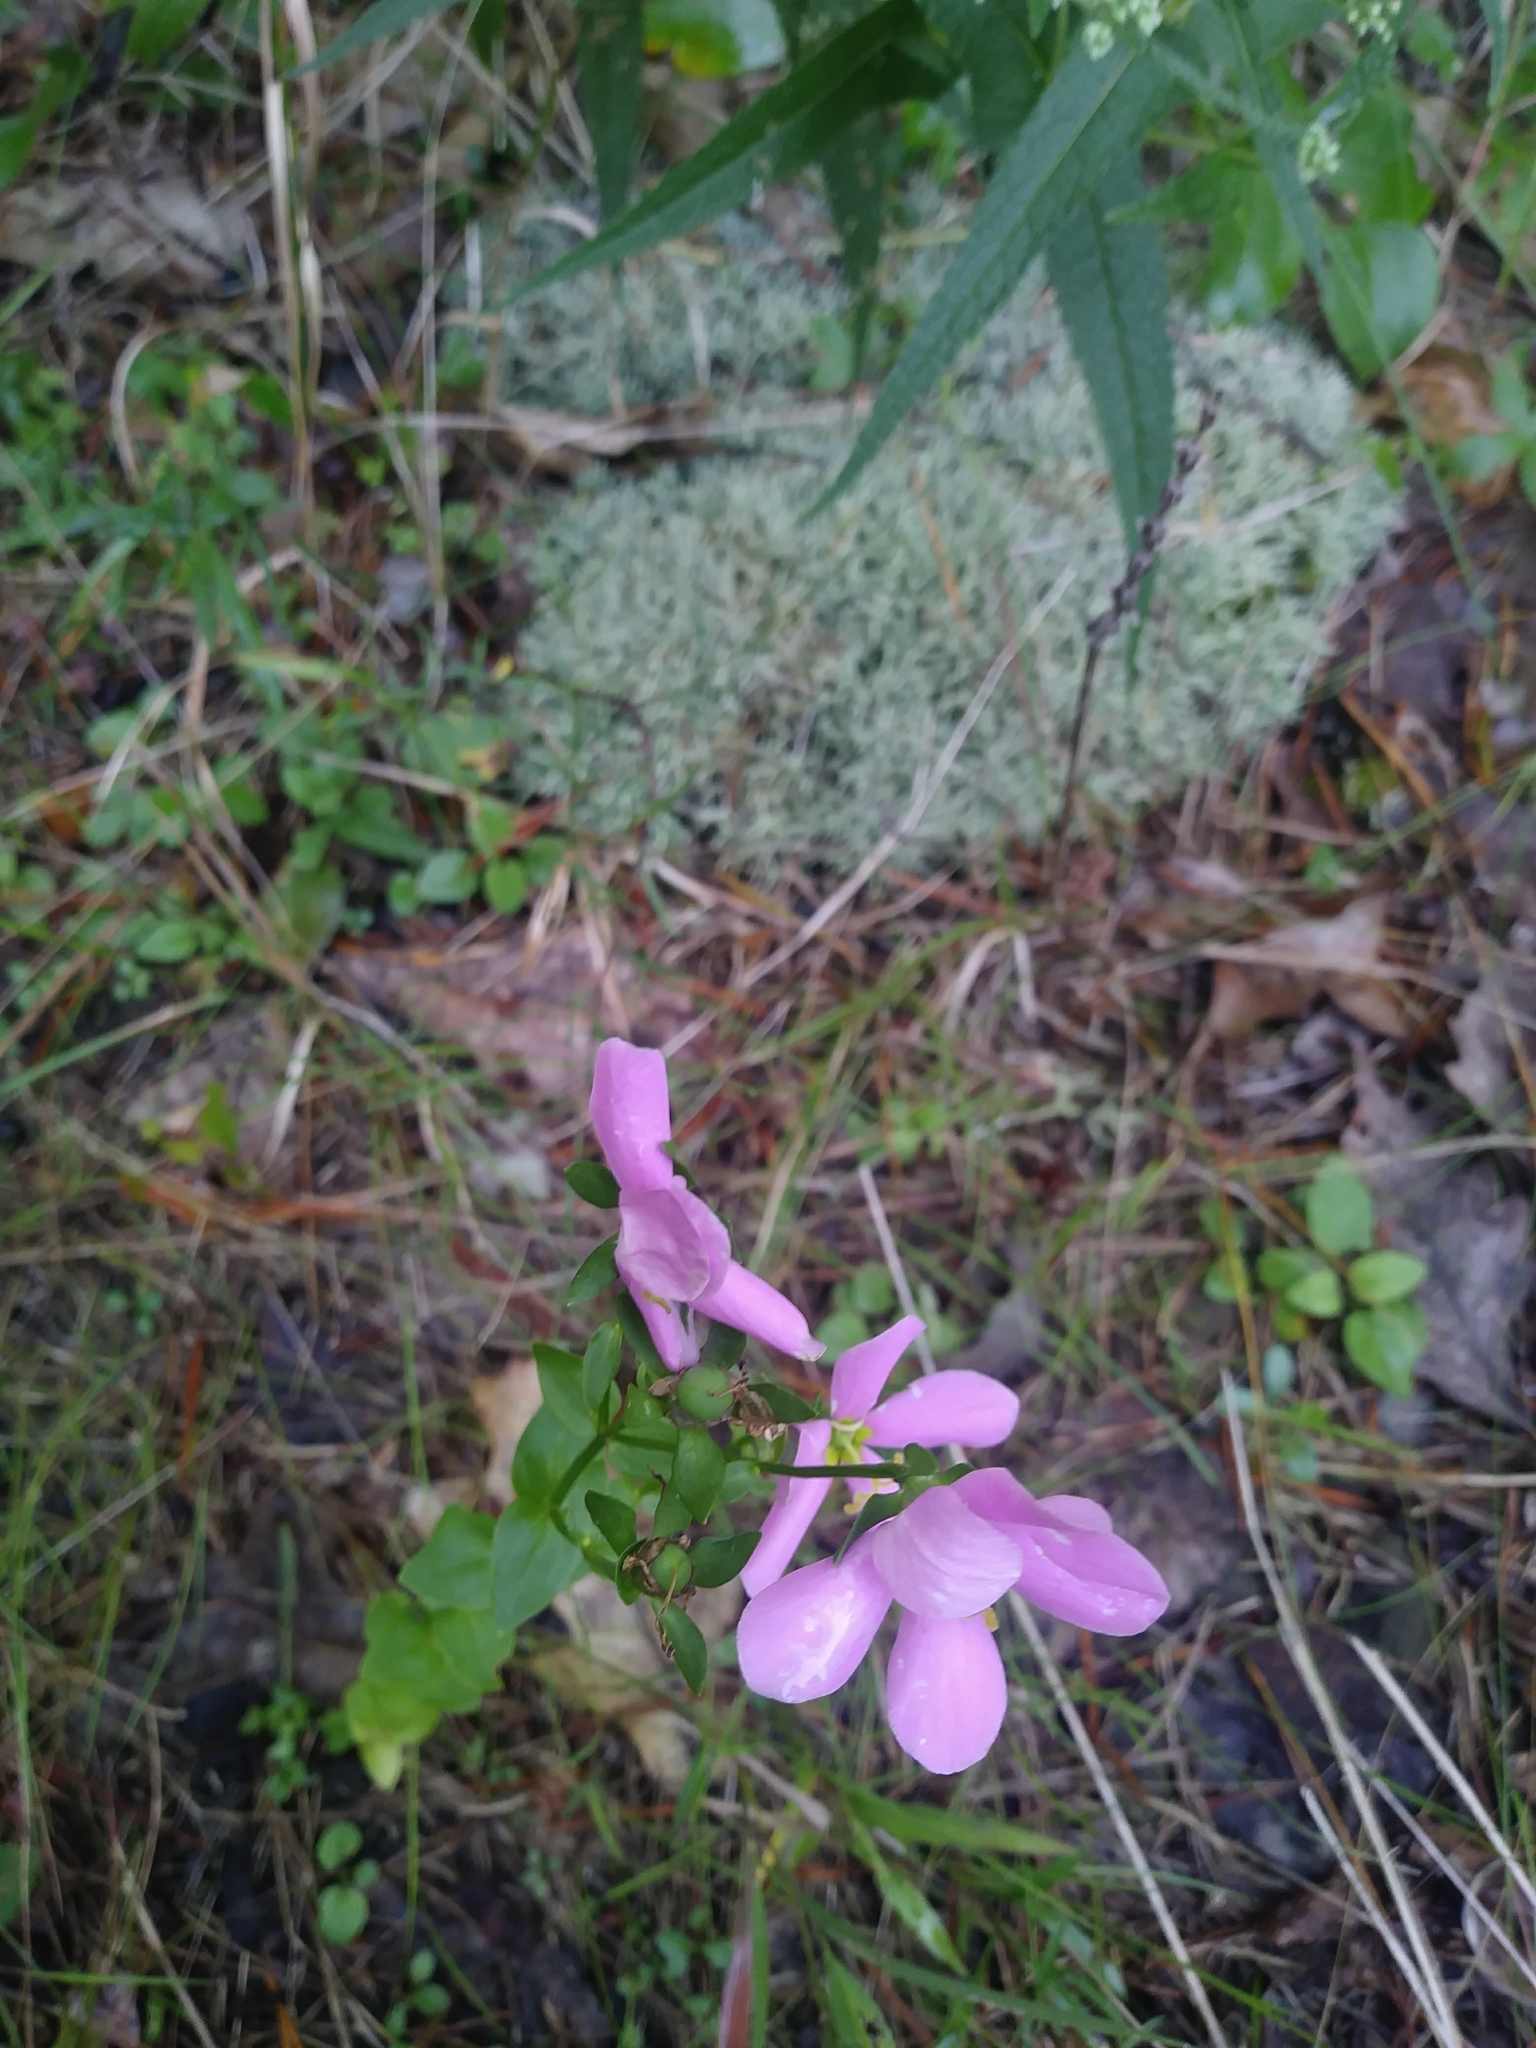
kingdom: Plantae
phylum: Tracheophyta
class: Magnoliopsida
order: Gentianales
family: Gentianaceae
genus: Sabatia
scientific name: Sabatia angularis
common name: Rose-pink
